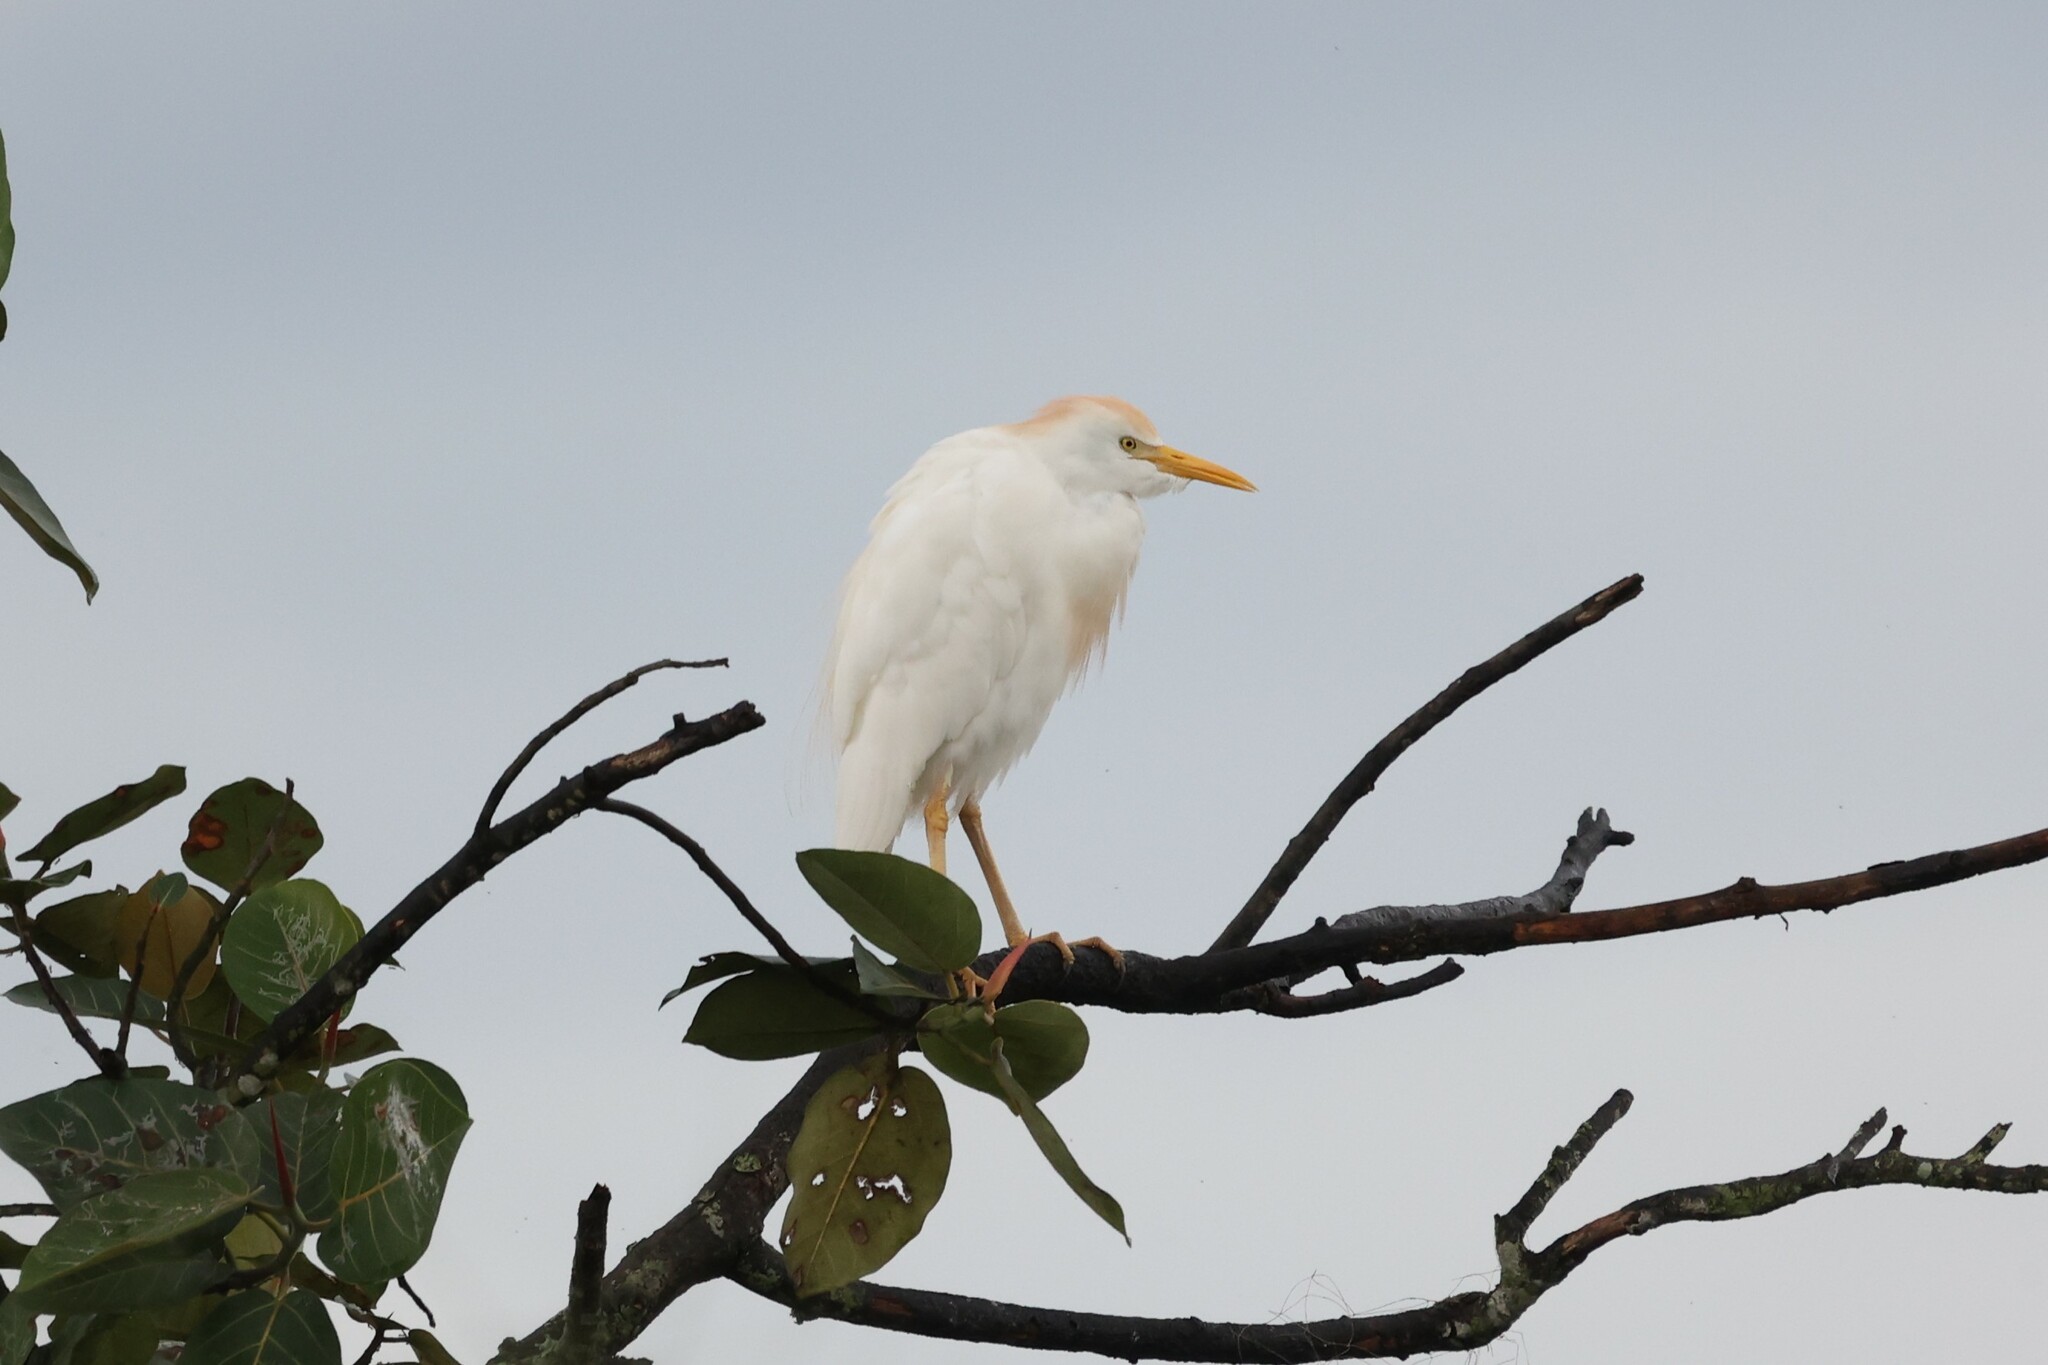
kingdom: Animalia
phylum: Chordata
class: Aves
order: Pelecaniformes
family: Ardeidae
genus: Bubulcus
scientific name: Bubulcus ibis
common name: Cattle egret
